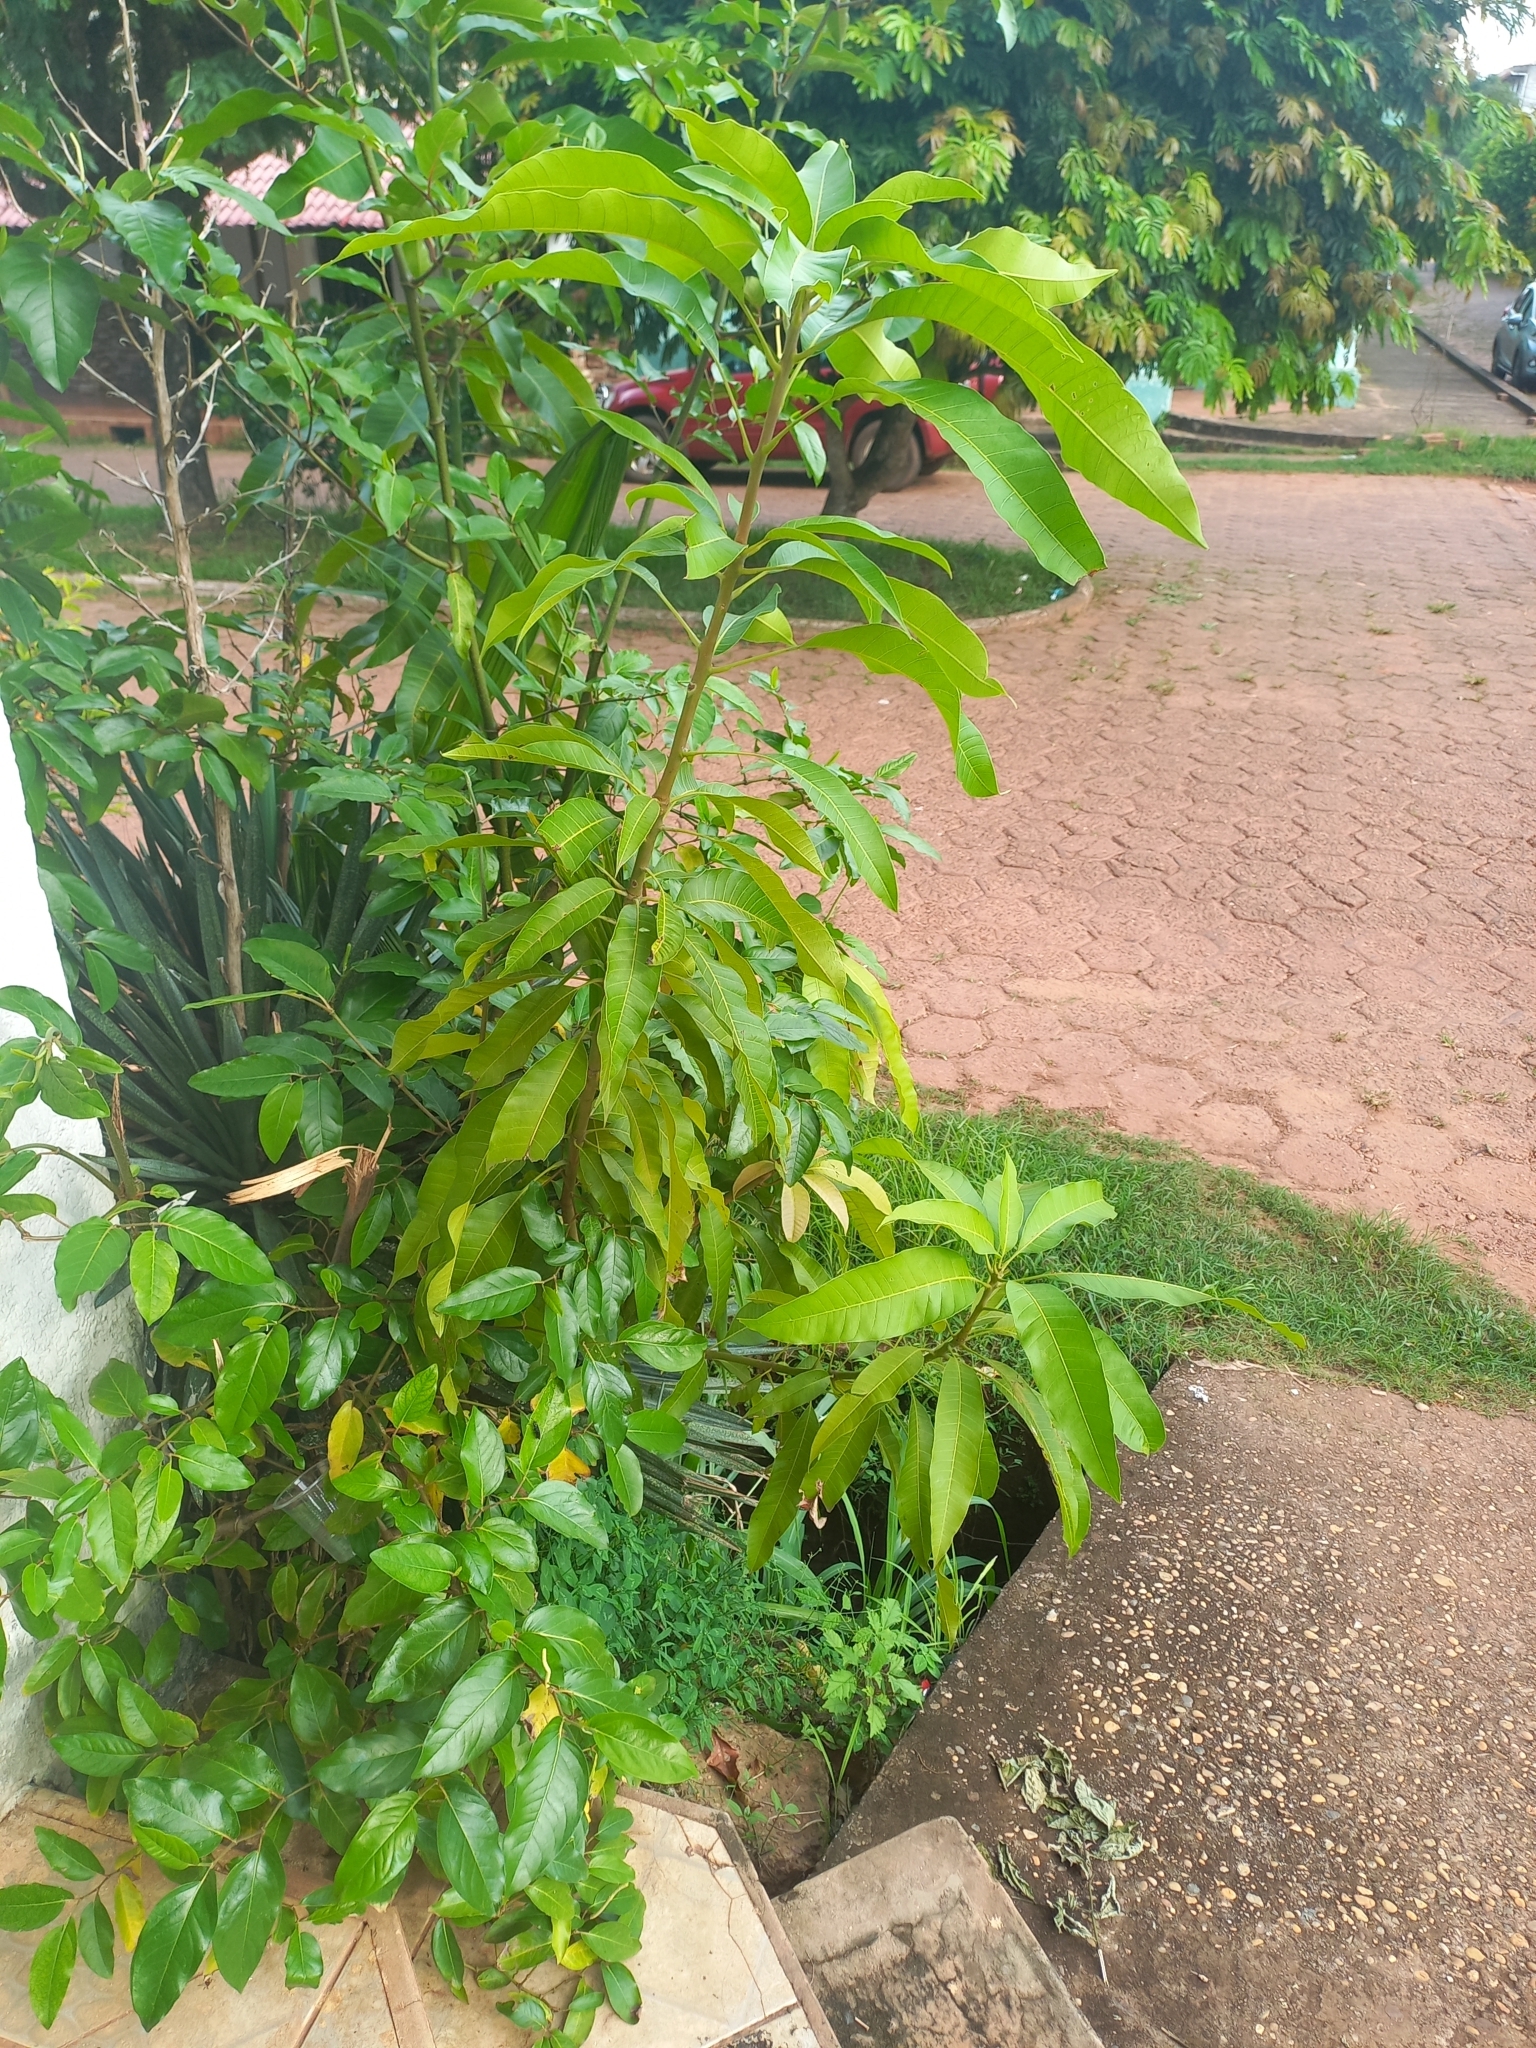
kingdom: Plantae
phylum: Tracheophyta
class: Magnoliopsida
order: Sapindales
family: Anacardiaceae
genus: Mangifera
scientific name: Mangifera indica
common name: Mango
